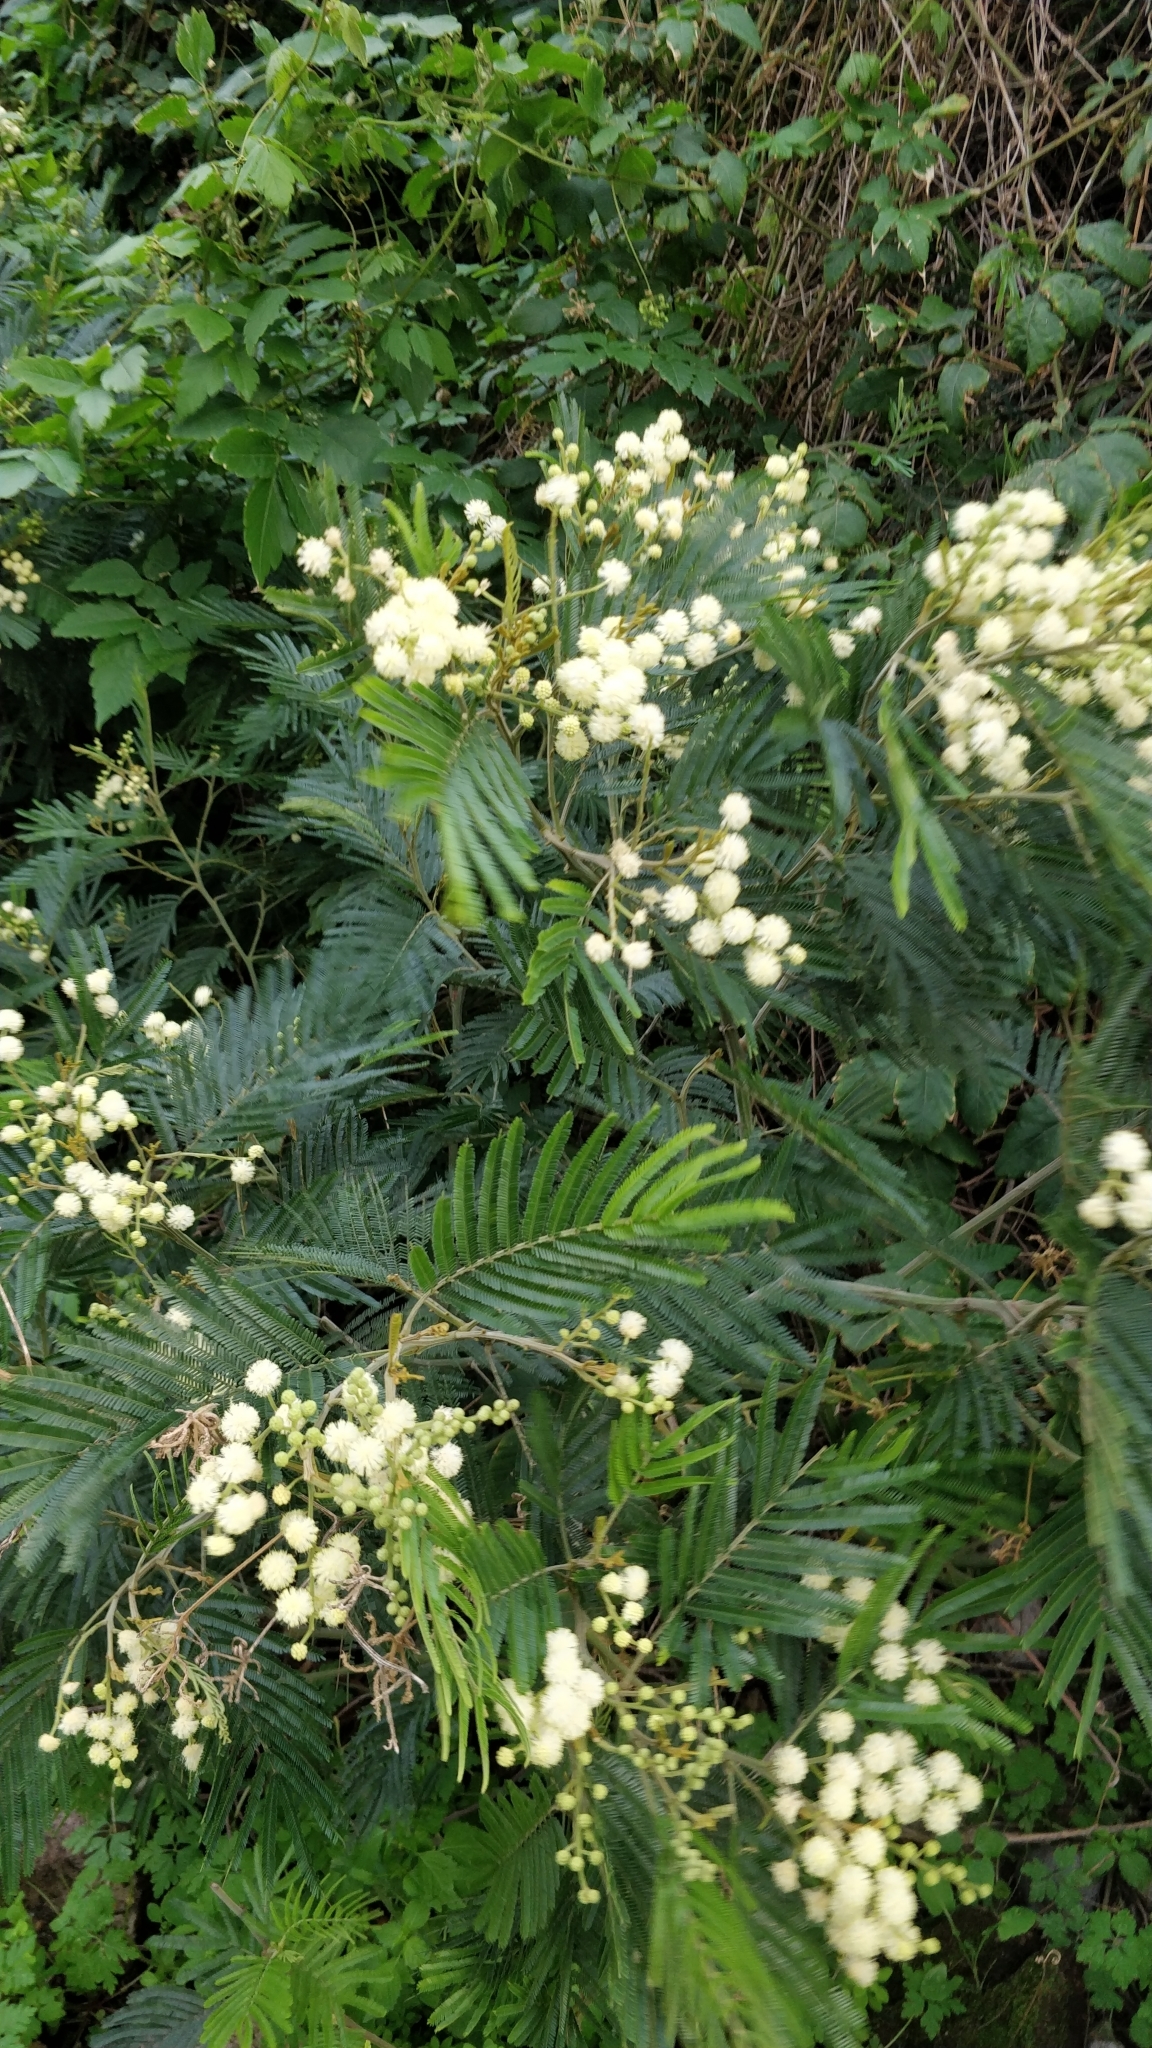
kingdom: Plantae
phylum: Tracheophyta
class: Magnoliopsida
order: Fabales
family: Fabaceae
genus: Acacia
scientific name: Acacia mearnsii
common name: Black wattle
